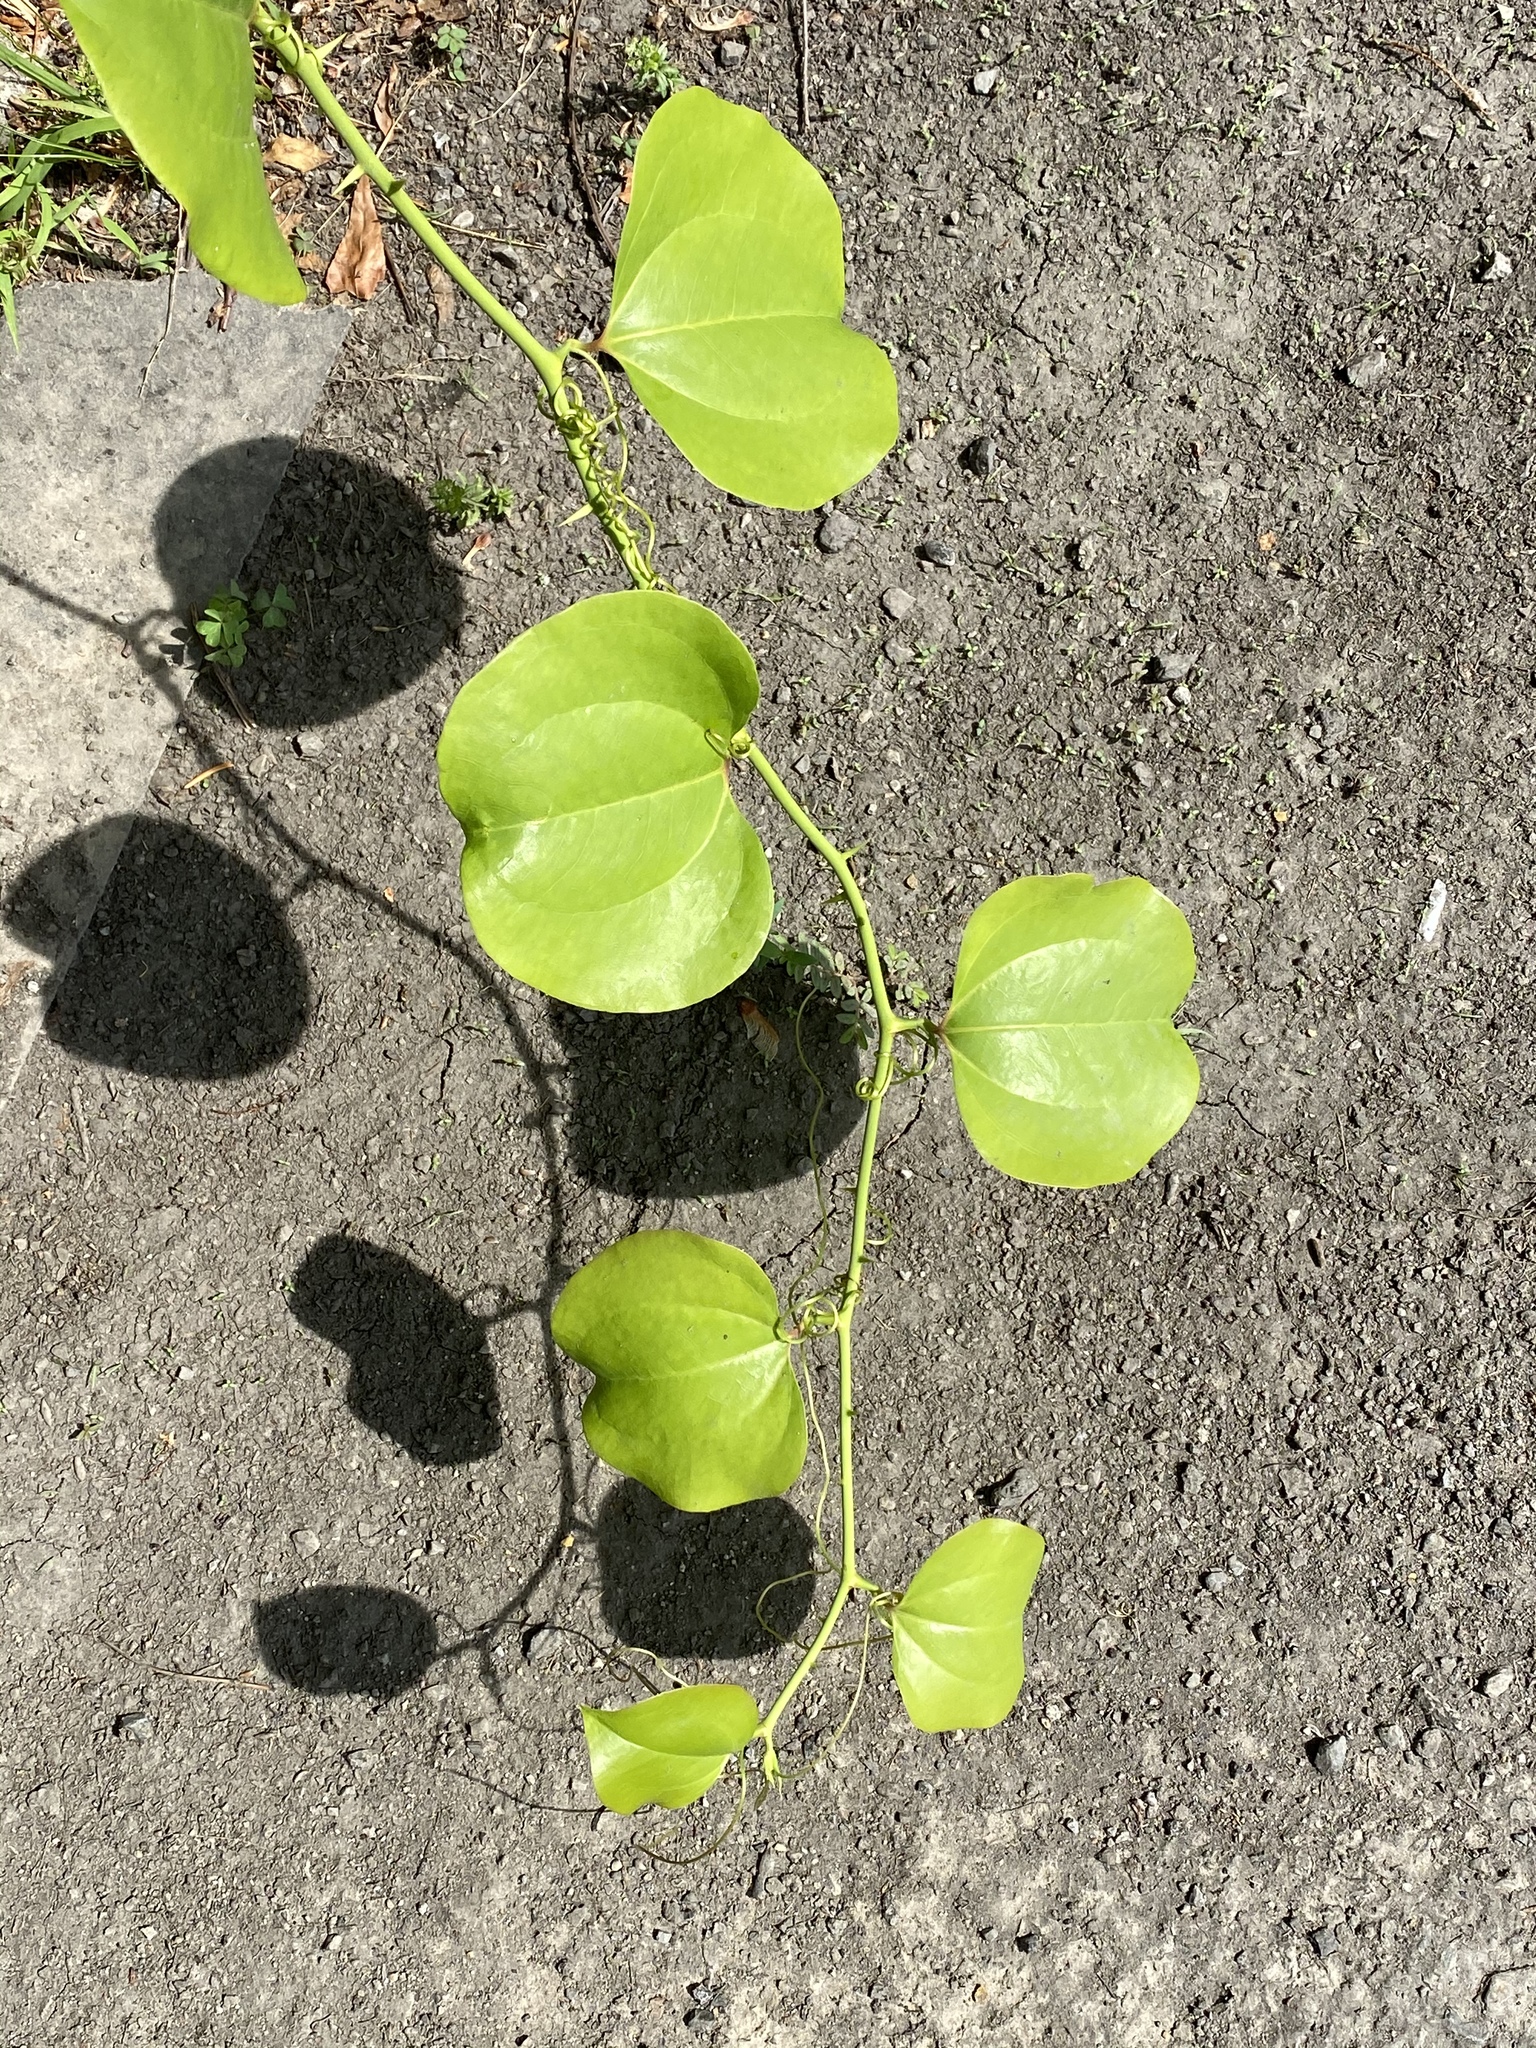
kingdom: Plantae
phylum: Tracheophyta
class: Liliopsida
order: Liliales
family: Smilacaceae
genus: Smilax
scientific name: Smilax rotundifolia
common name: Bullbriar
